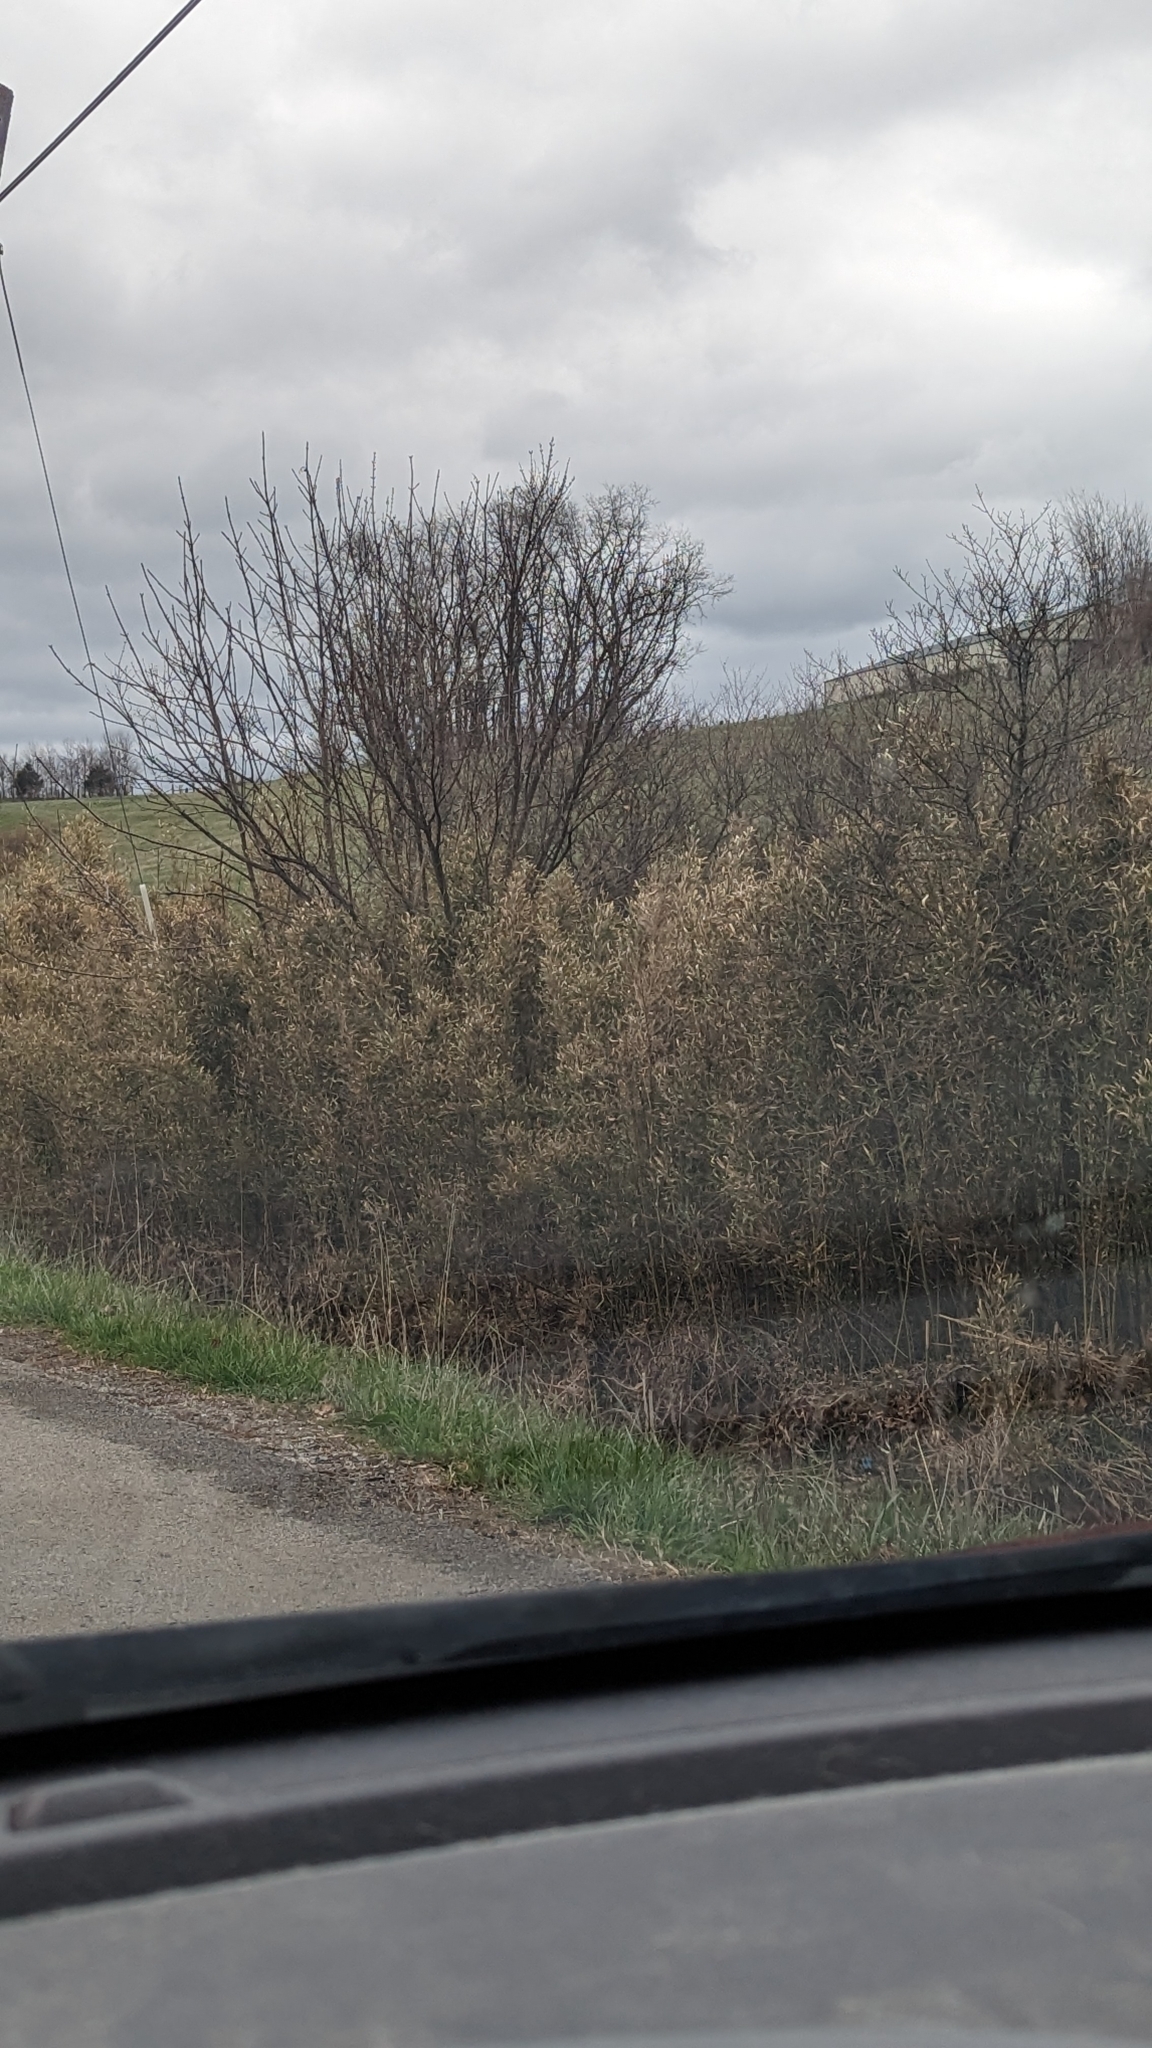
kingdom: Plantae
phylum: Tracheophyta
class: Liliopsida
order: Poales
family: Poaceae
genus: Arundinaria
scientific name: Arundinaria gigantea
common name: Giant cane
